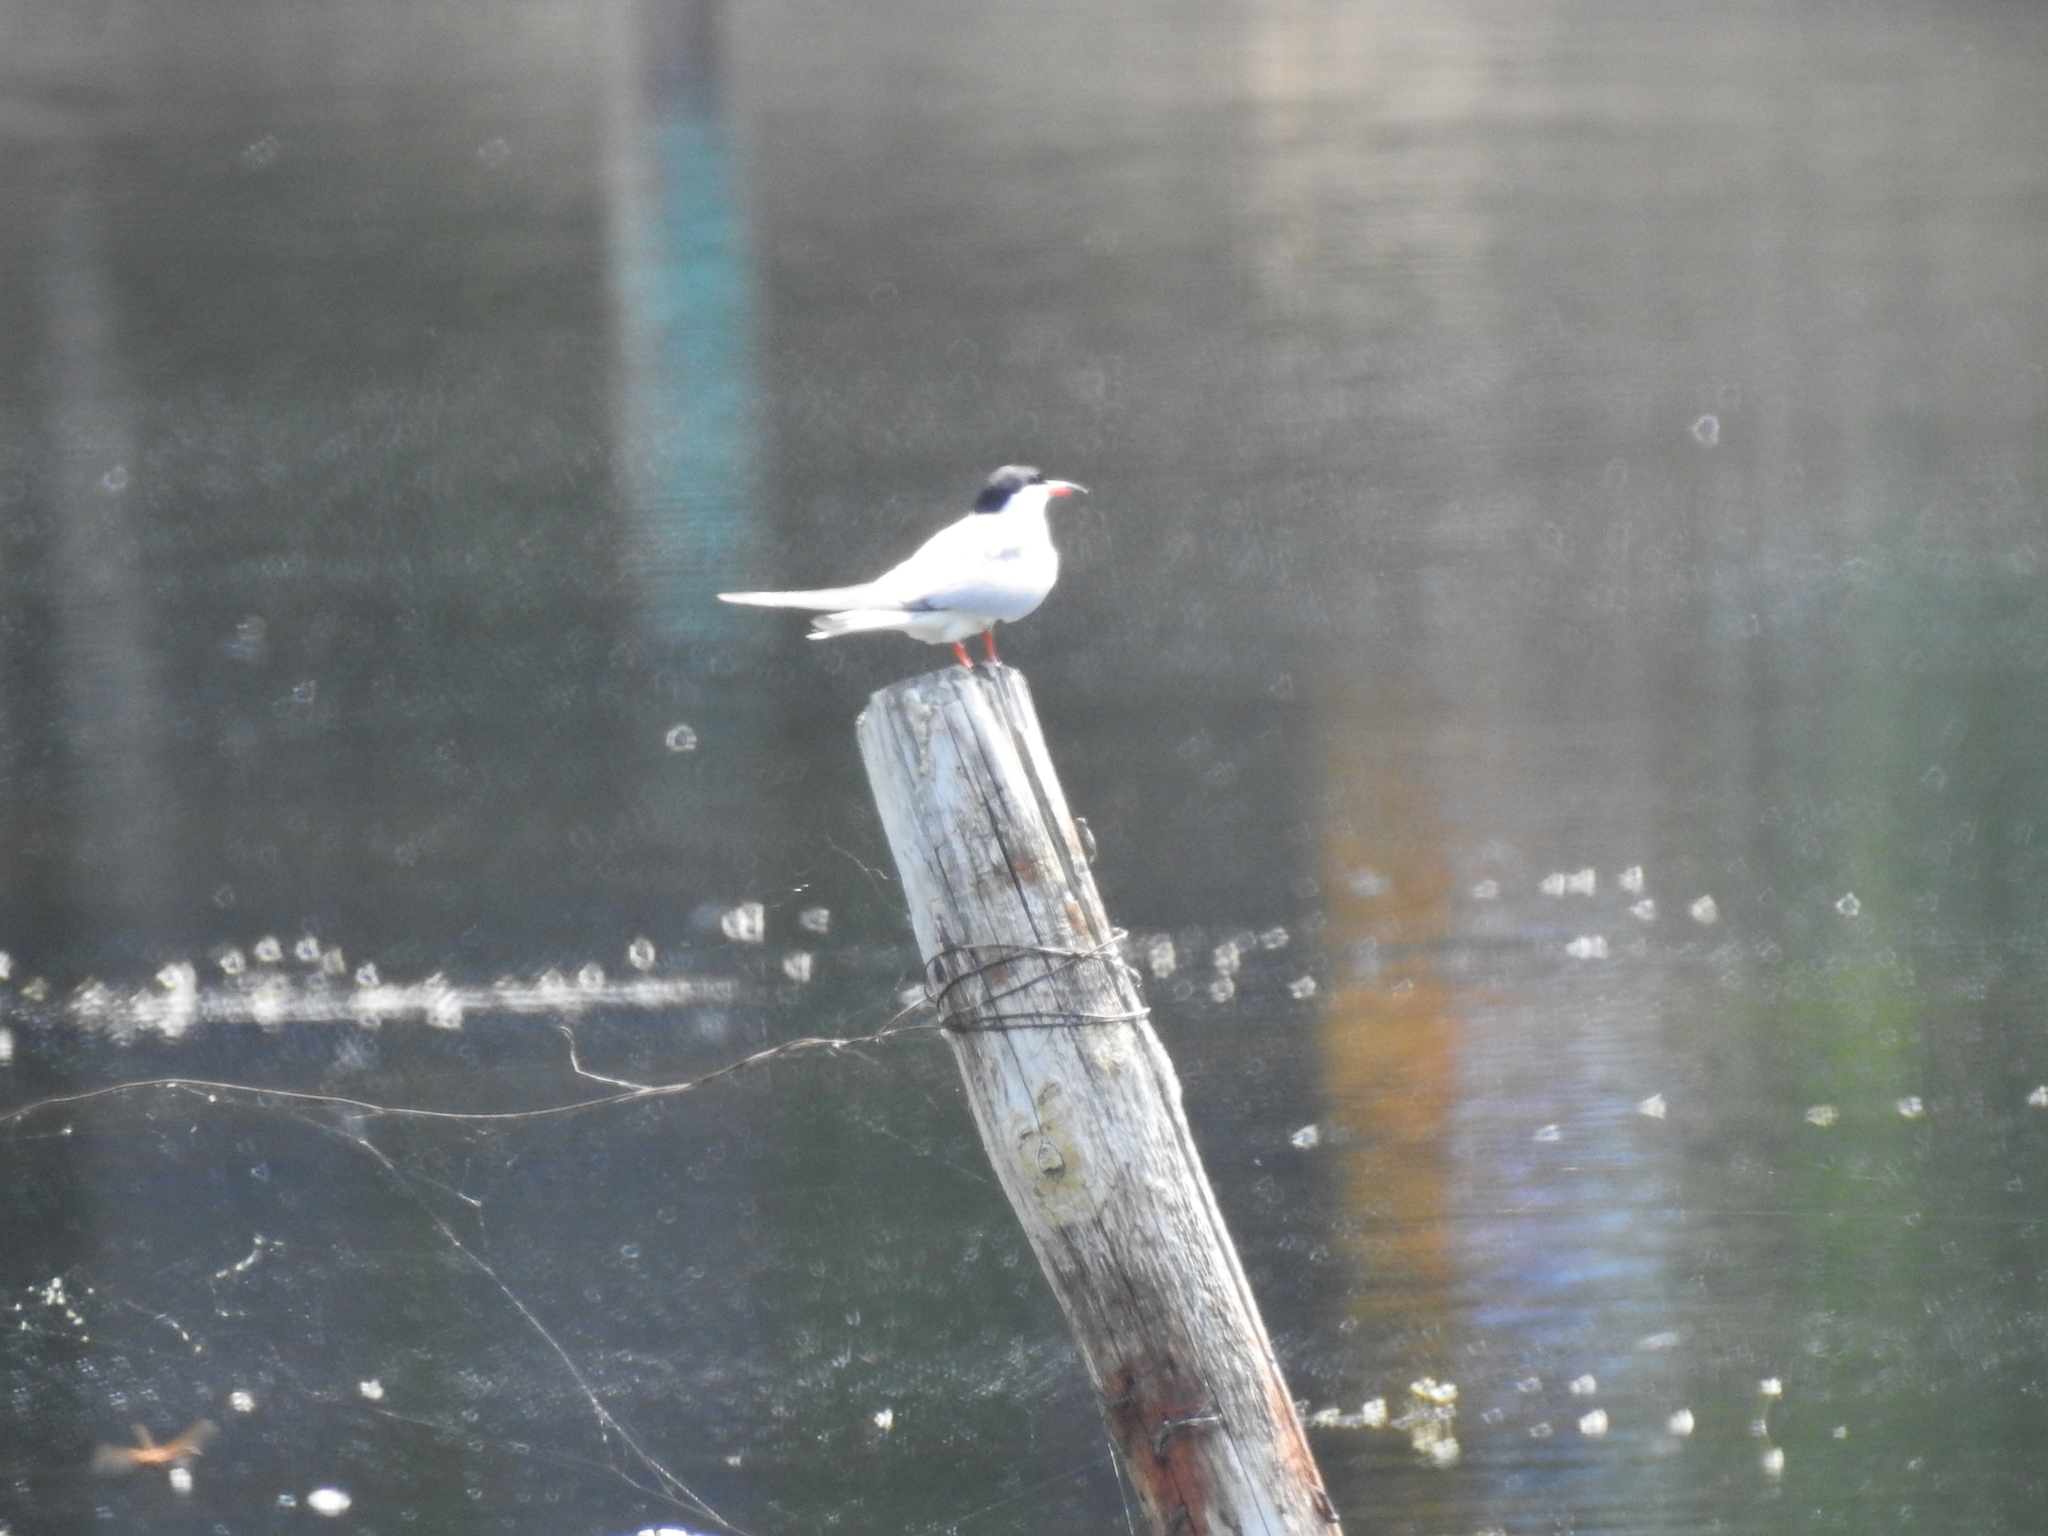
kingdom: Animalia
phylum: Chordata
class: Aves
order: Charadriiformes
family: Laridae
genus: Sterna
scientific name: Sterna hirundo
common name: Common tern
